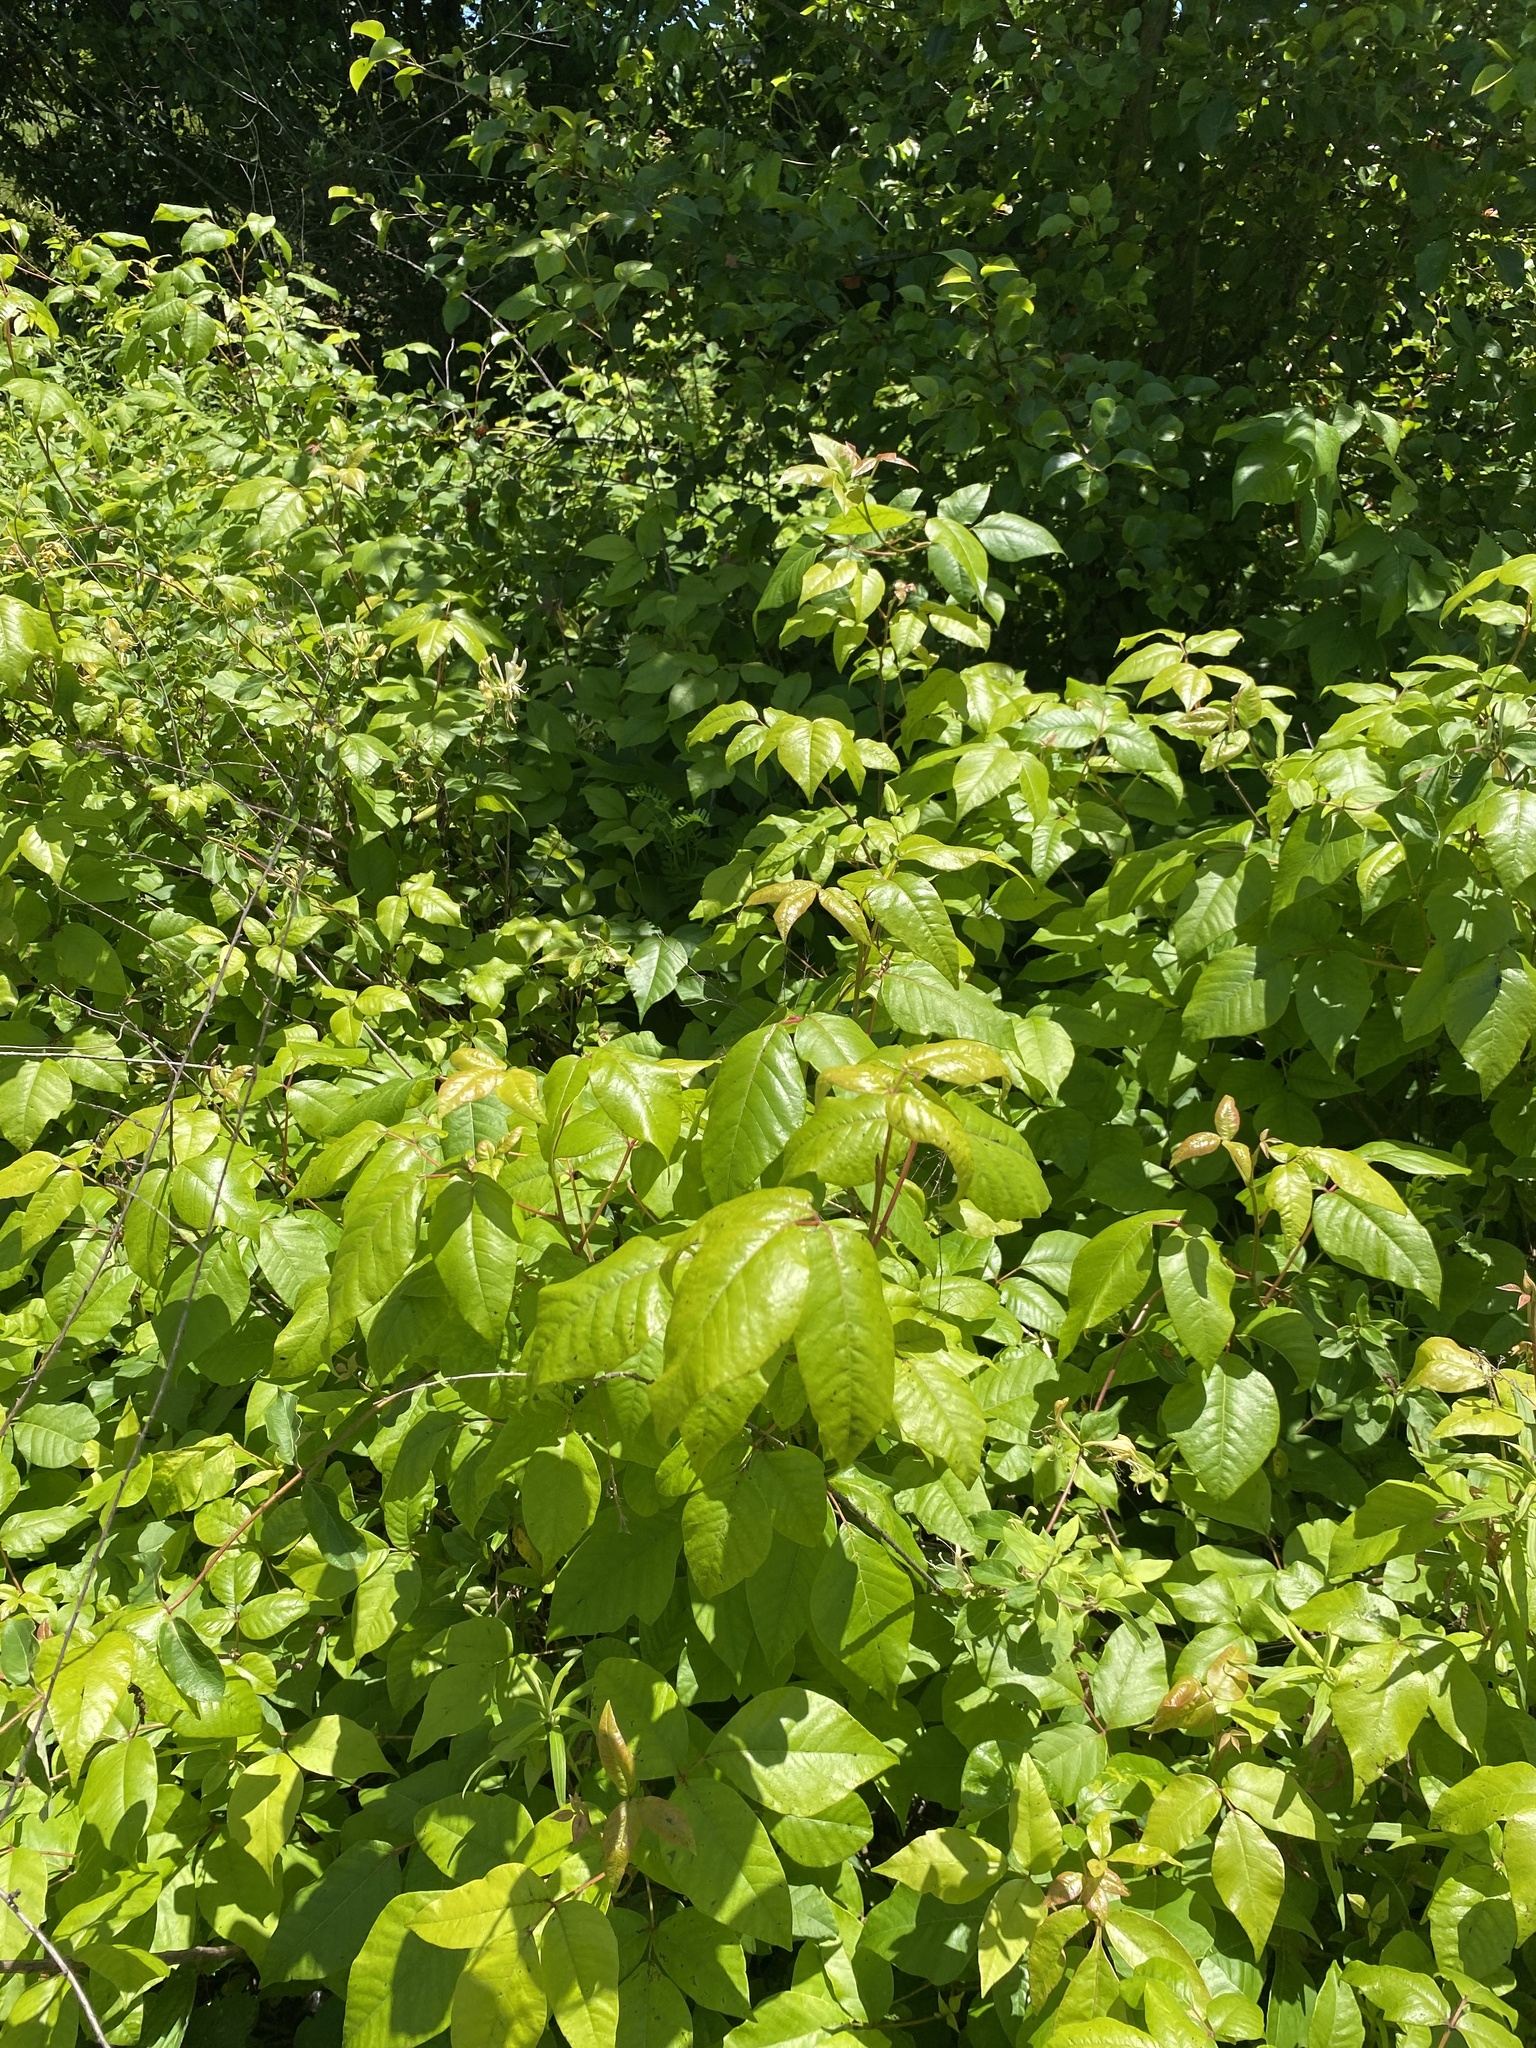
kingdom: Plantae
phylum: Tracheophyta
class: Magnoliopsida
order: Sapindales
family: Anacardiaceae
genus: Toxicodendron
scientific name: Toxicodendron radicans
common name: Poison ivy
